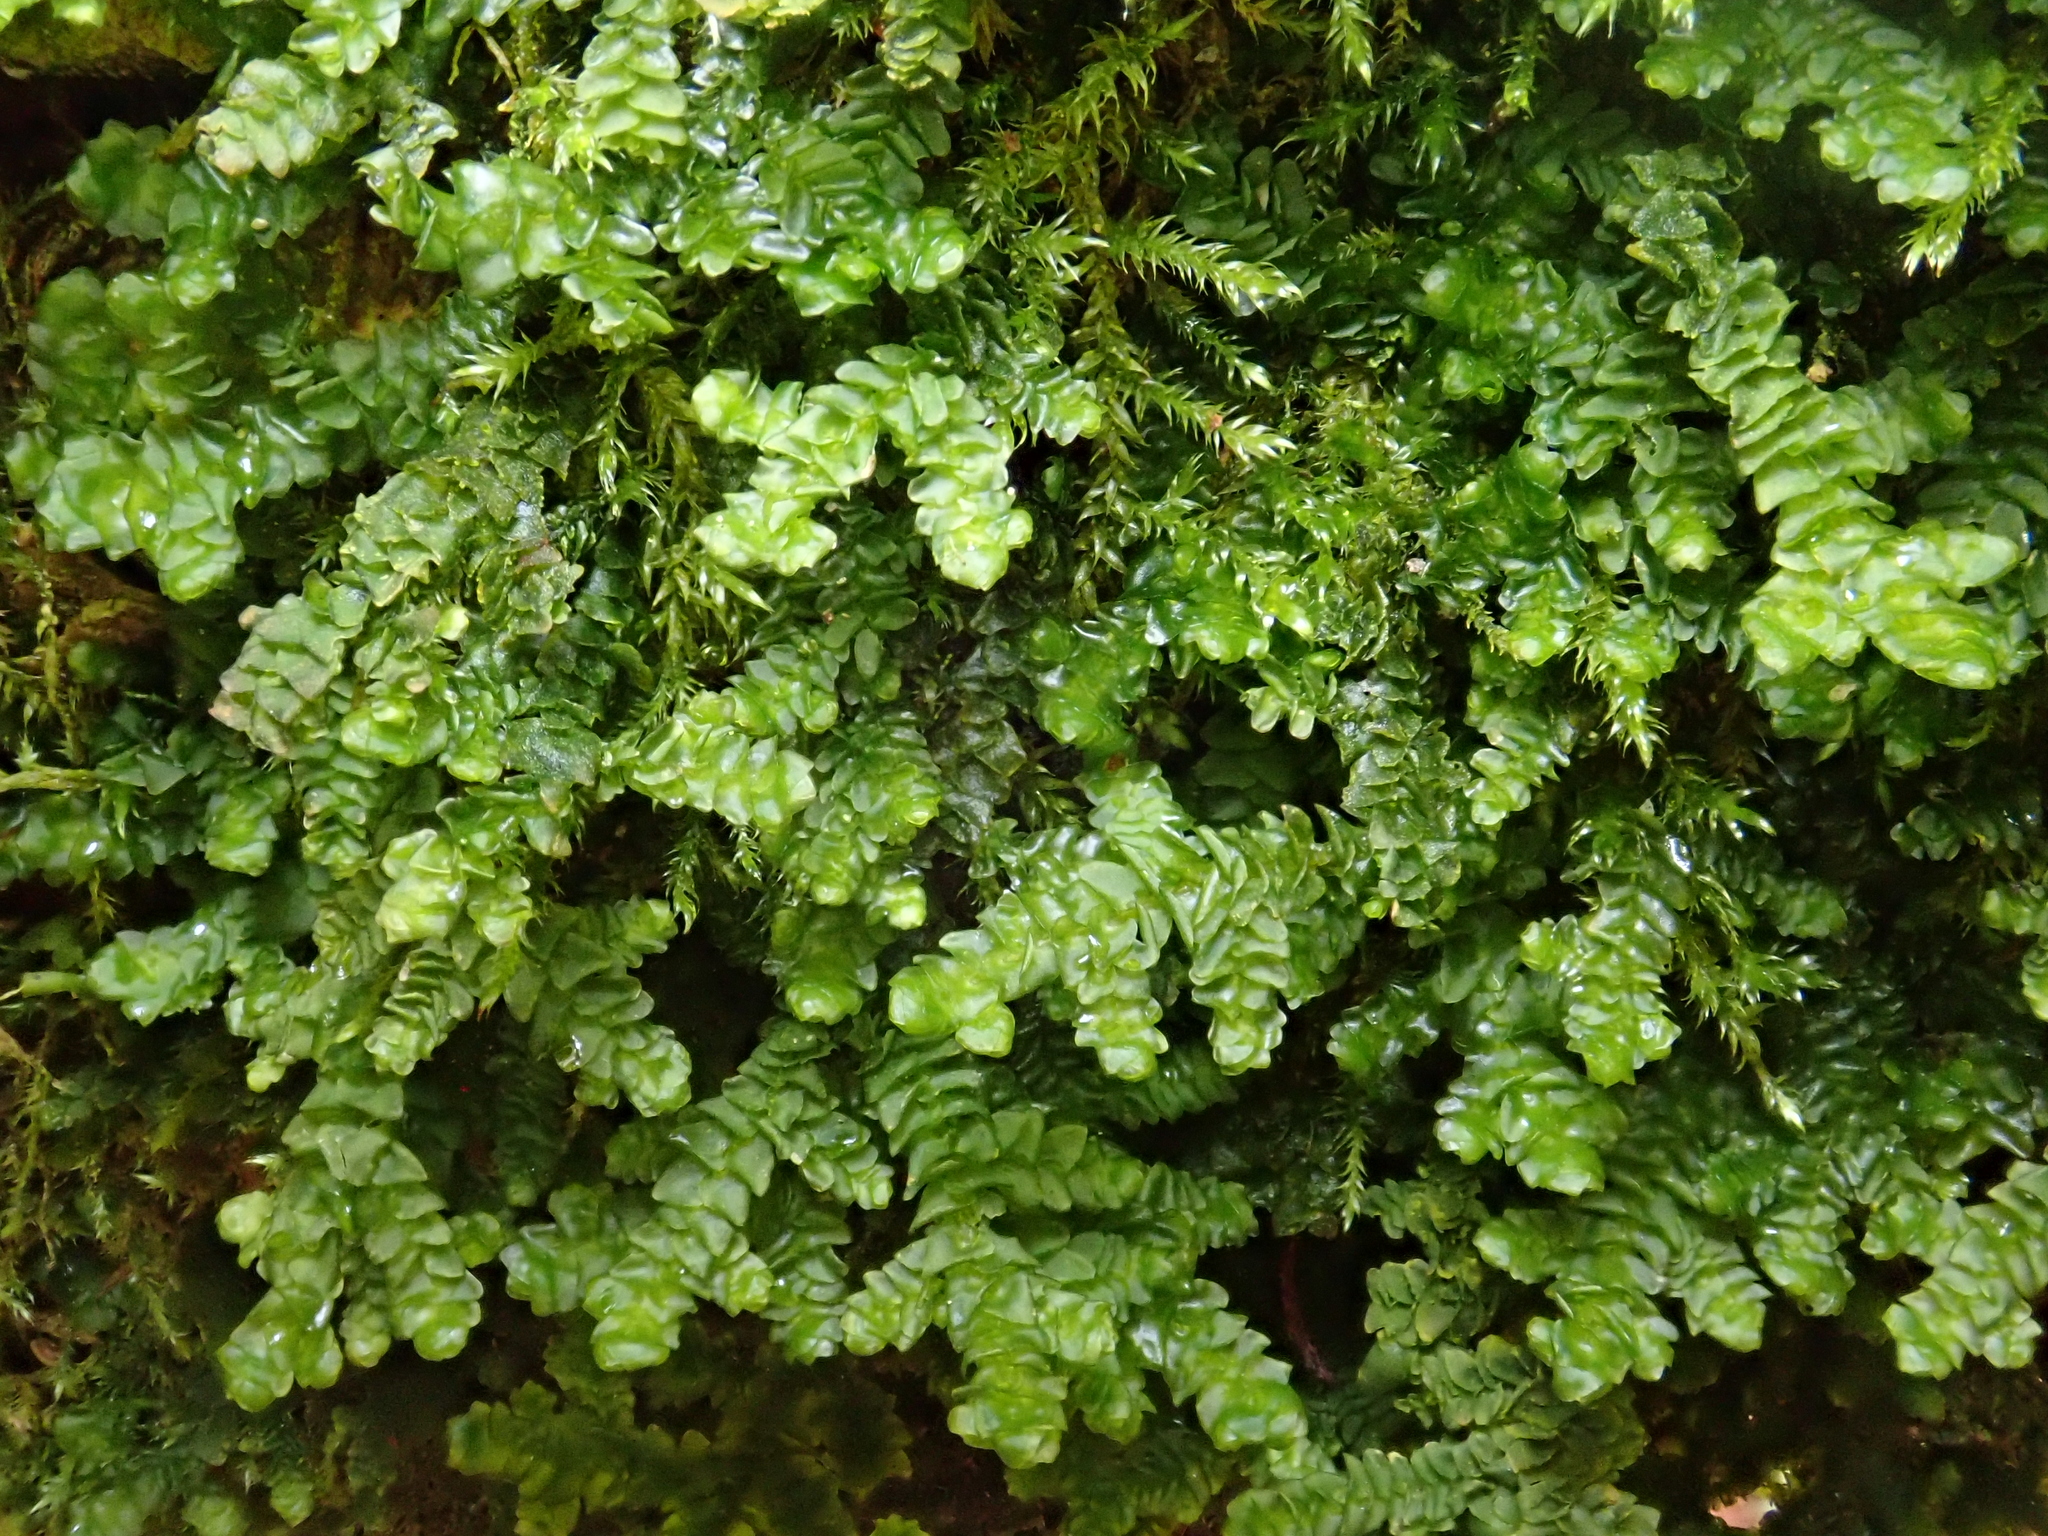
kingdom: Plantae
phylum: Marchantiophyta
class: Jungermanniopsida
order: Porellales
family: Porellaceae
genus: Porella
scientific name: Porella platyphylla
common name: Wall scalewort
